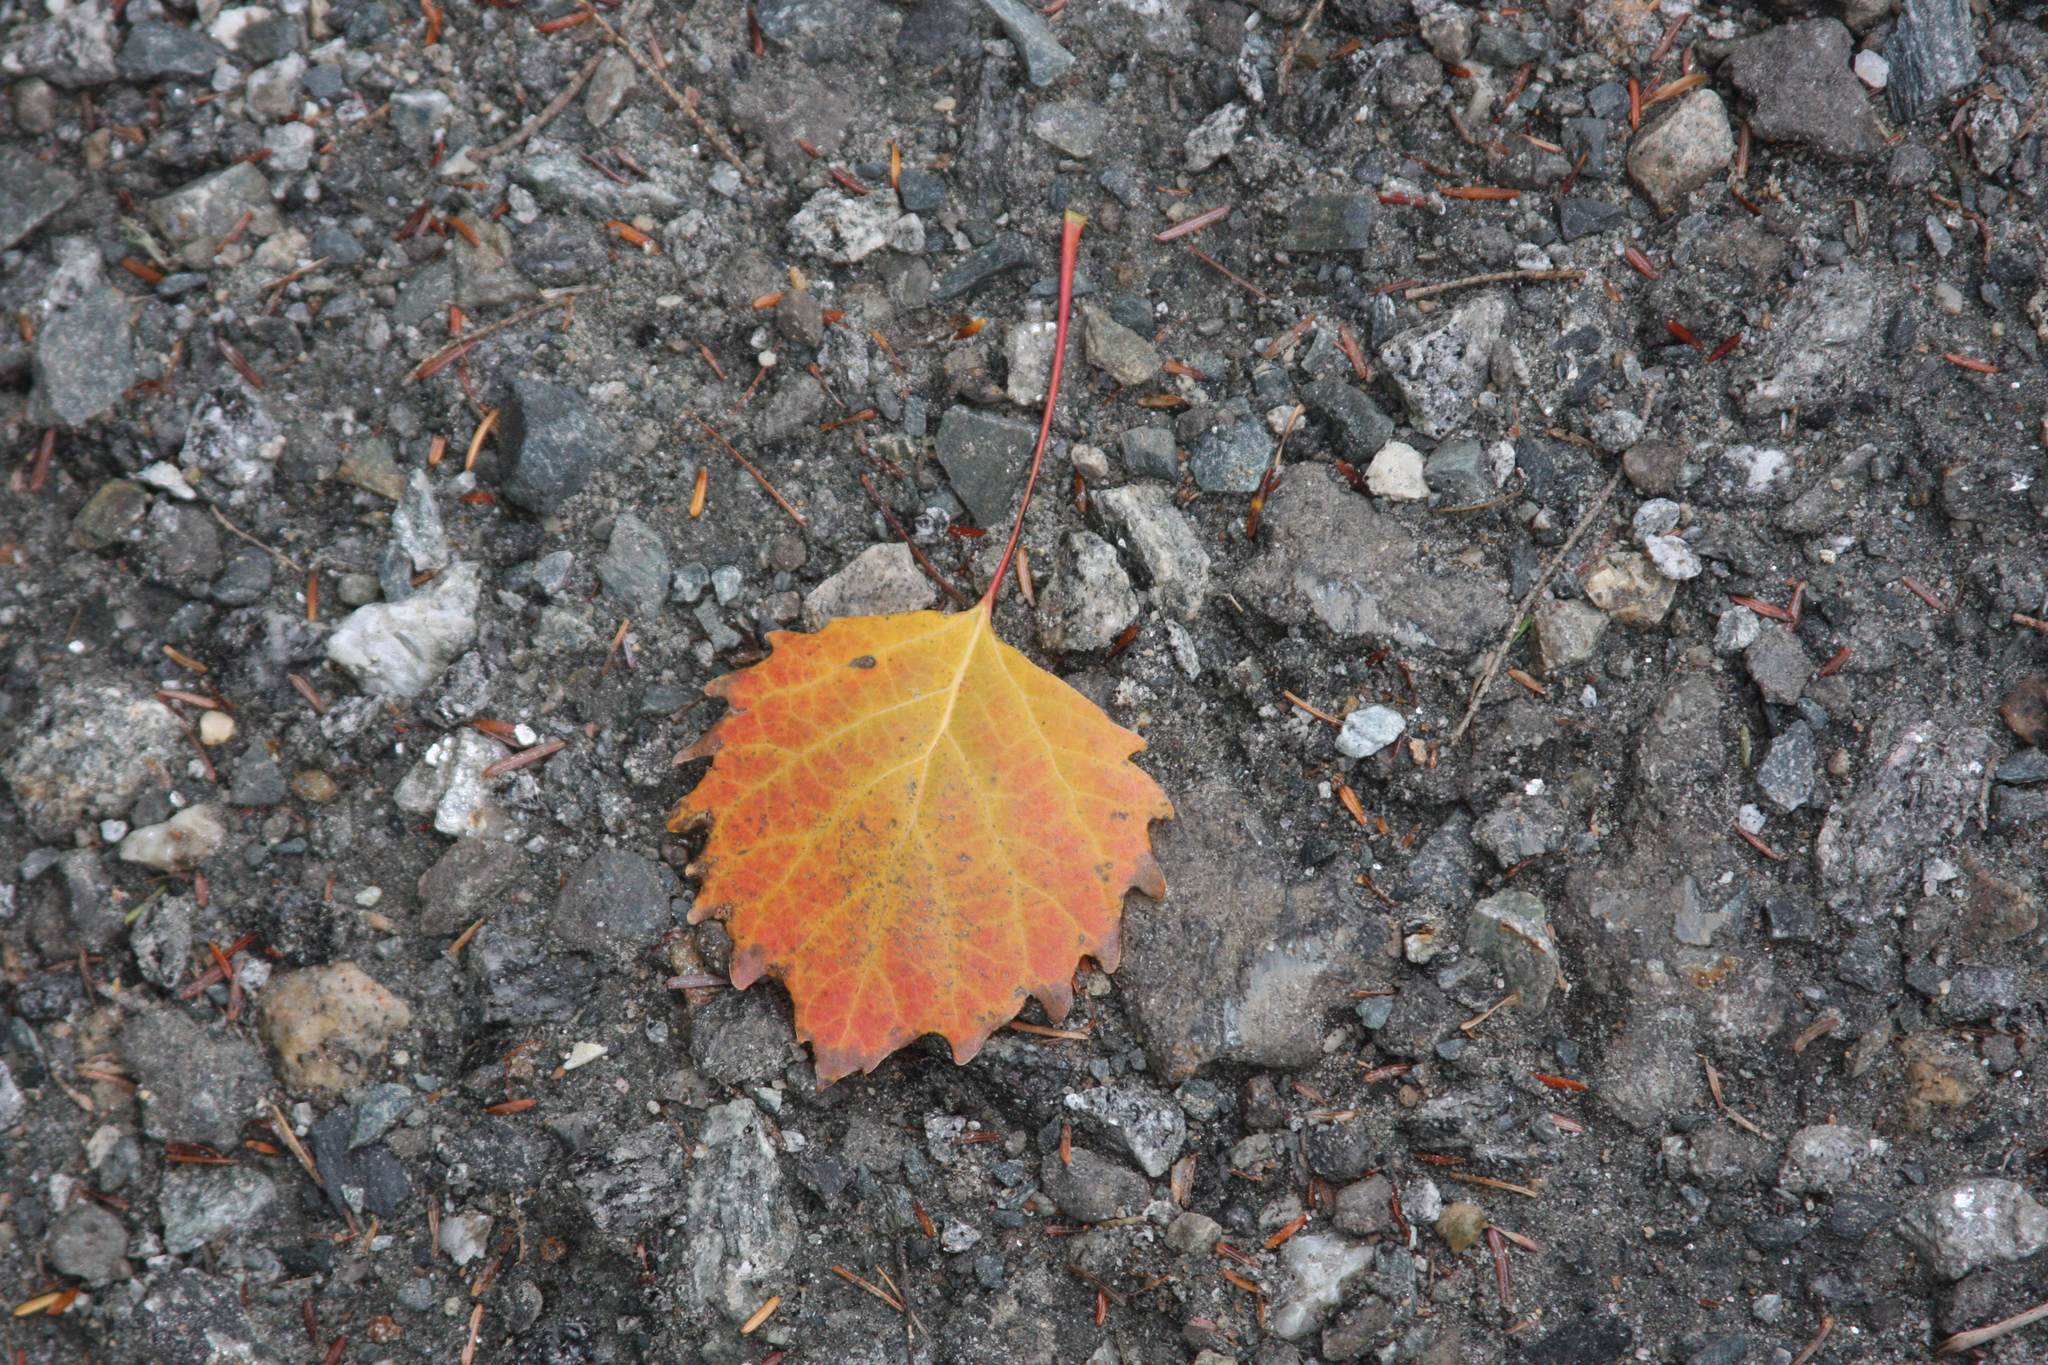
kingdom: Plantae
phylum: Tracheophyta
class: Magnoliopsida
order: Malpighiales
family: Salicaceae
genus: Populus
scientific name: Populus grandidentata
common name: Bigtooth aspen
